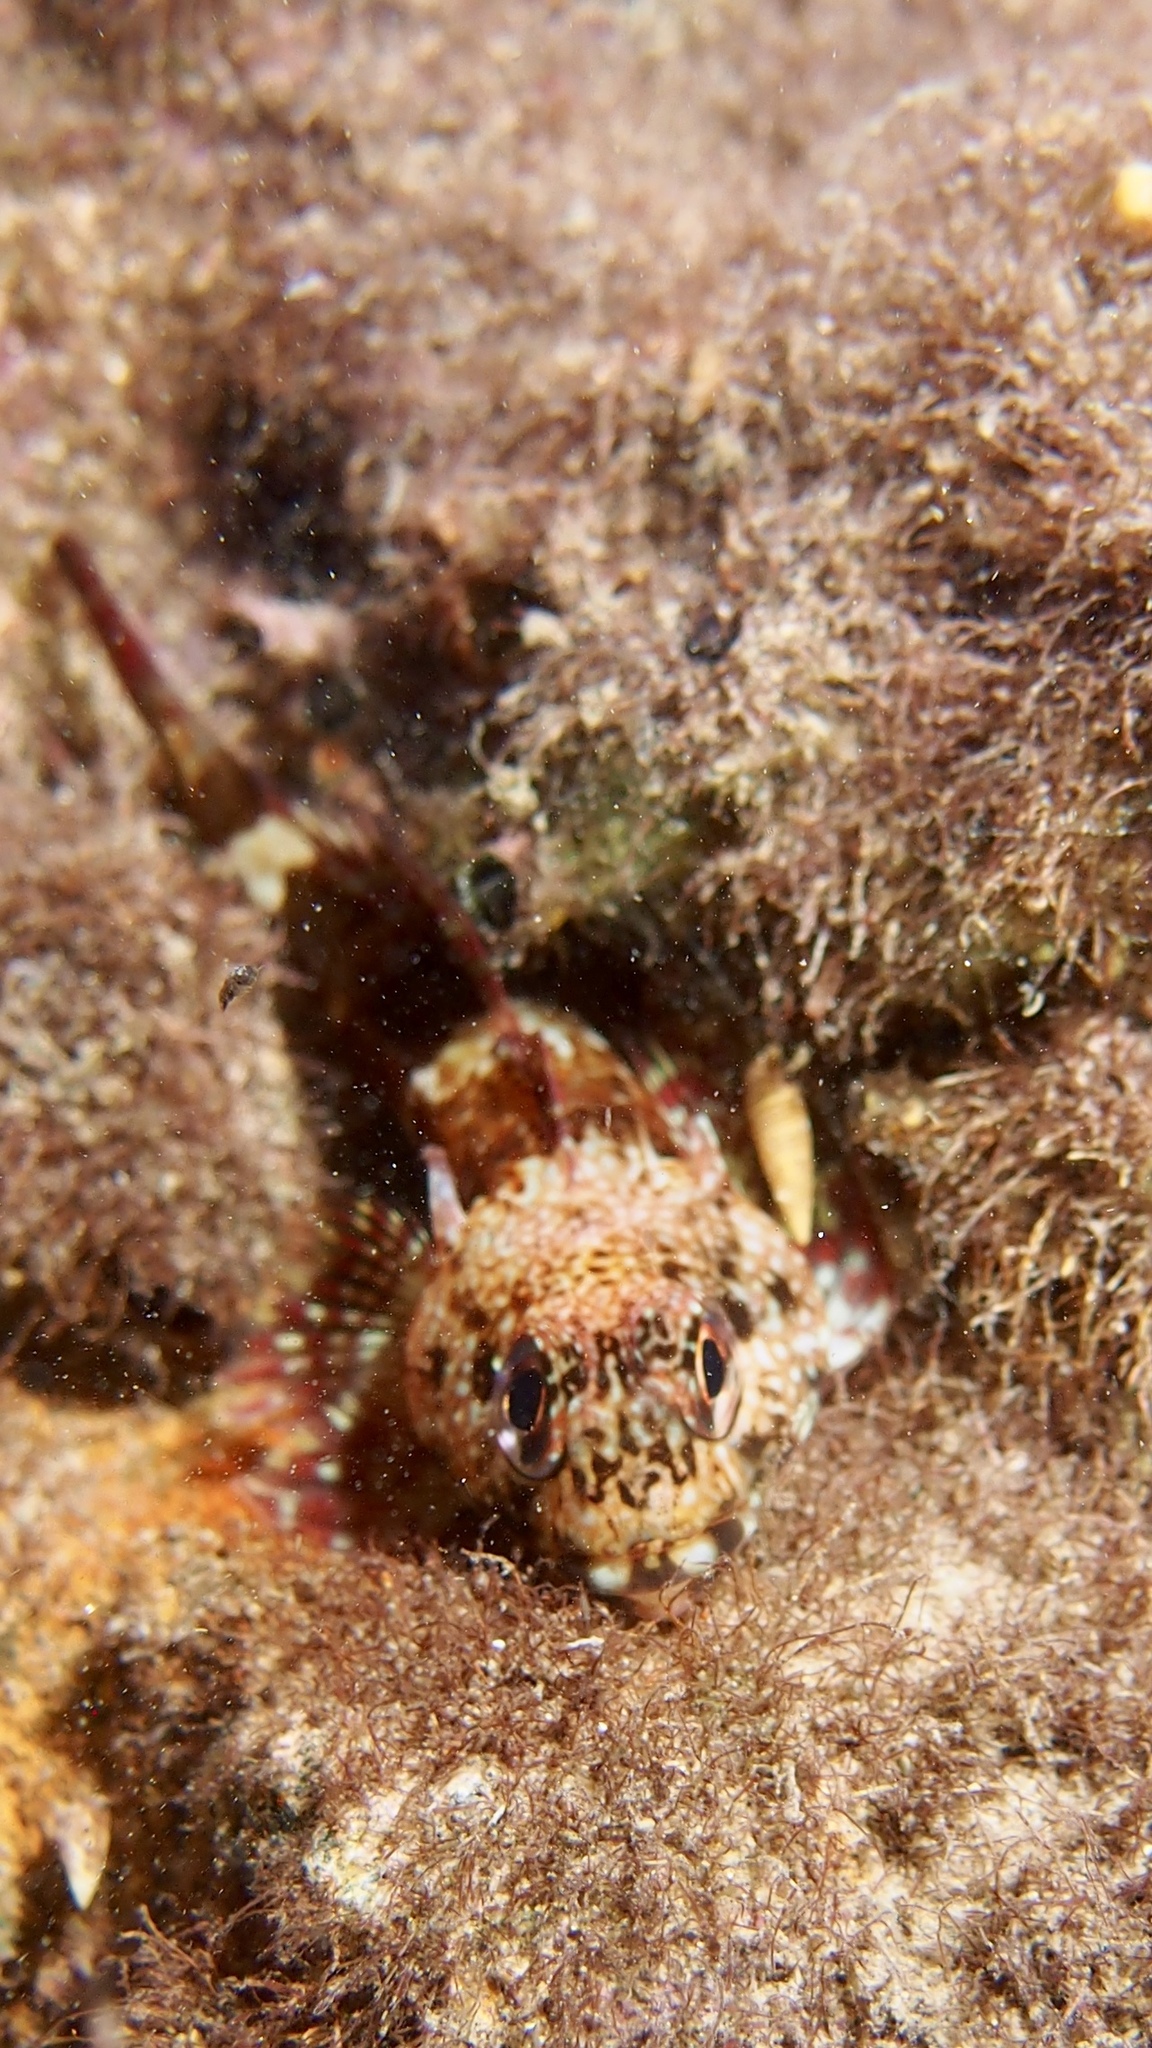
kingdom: Animalia
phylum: Chordata
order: Perciformes
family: Bovichtidae
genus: Bovichtus
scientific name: Bovichtus angustifrons
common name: Dragonet
